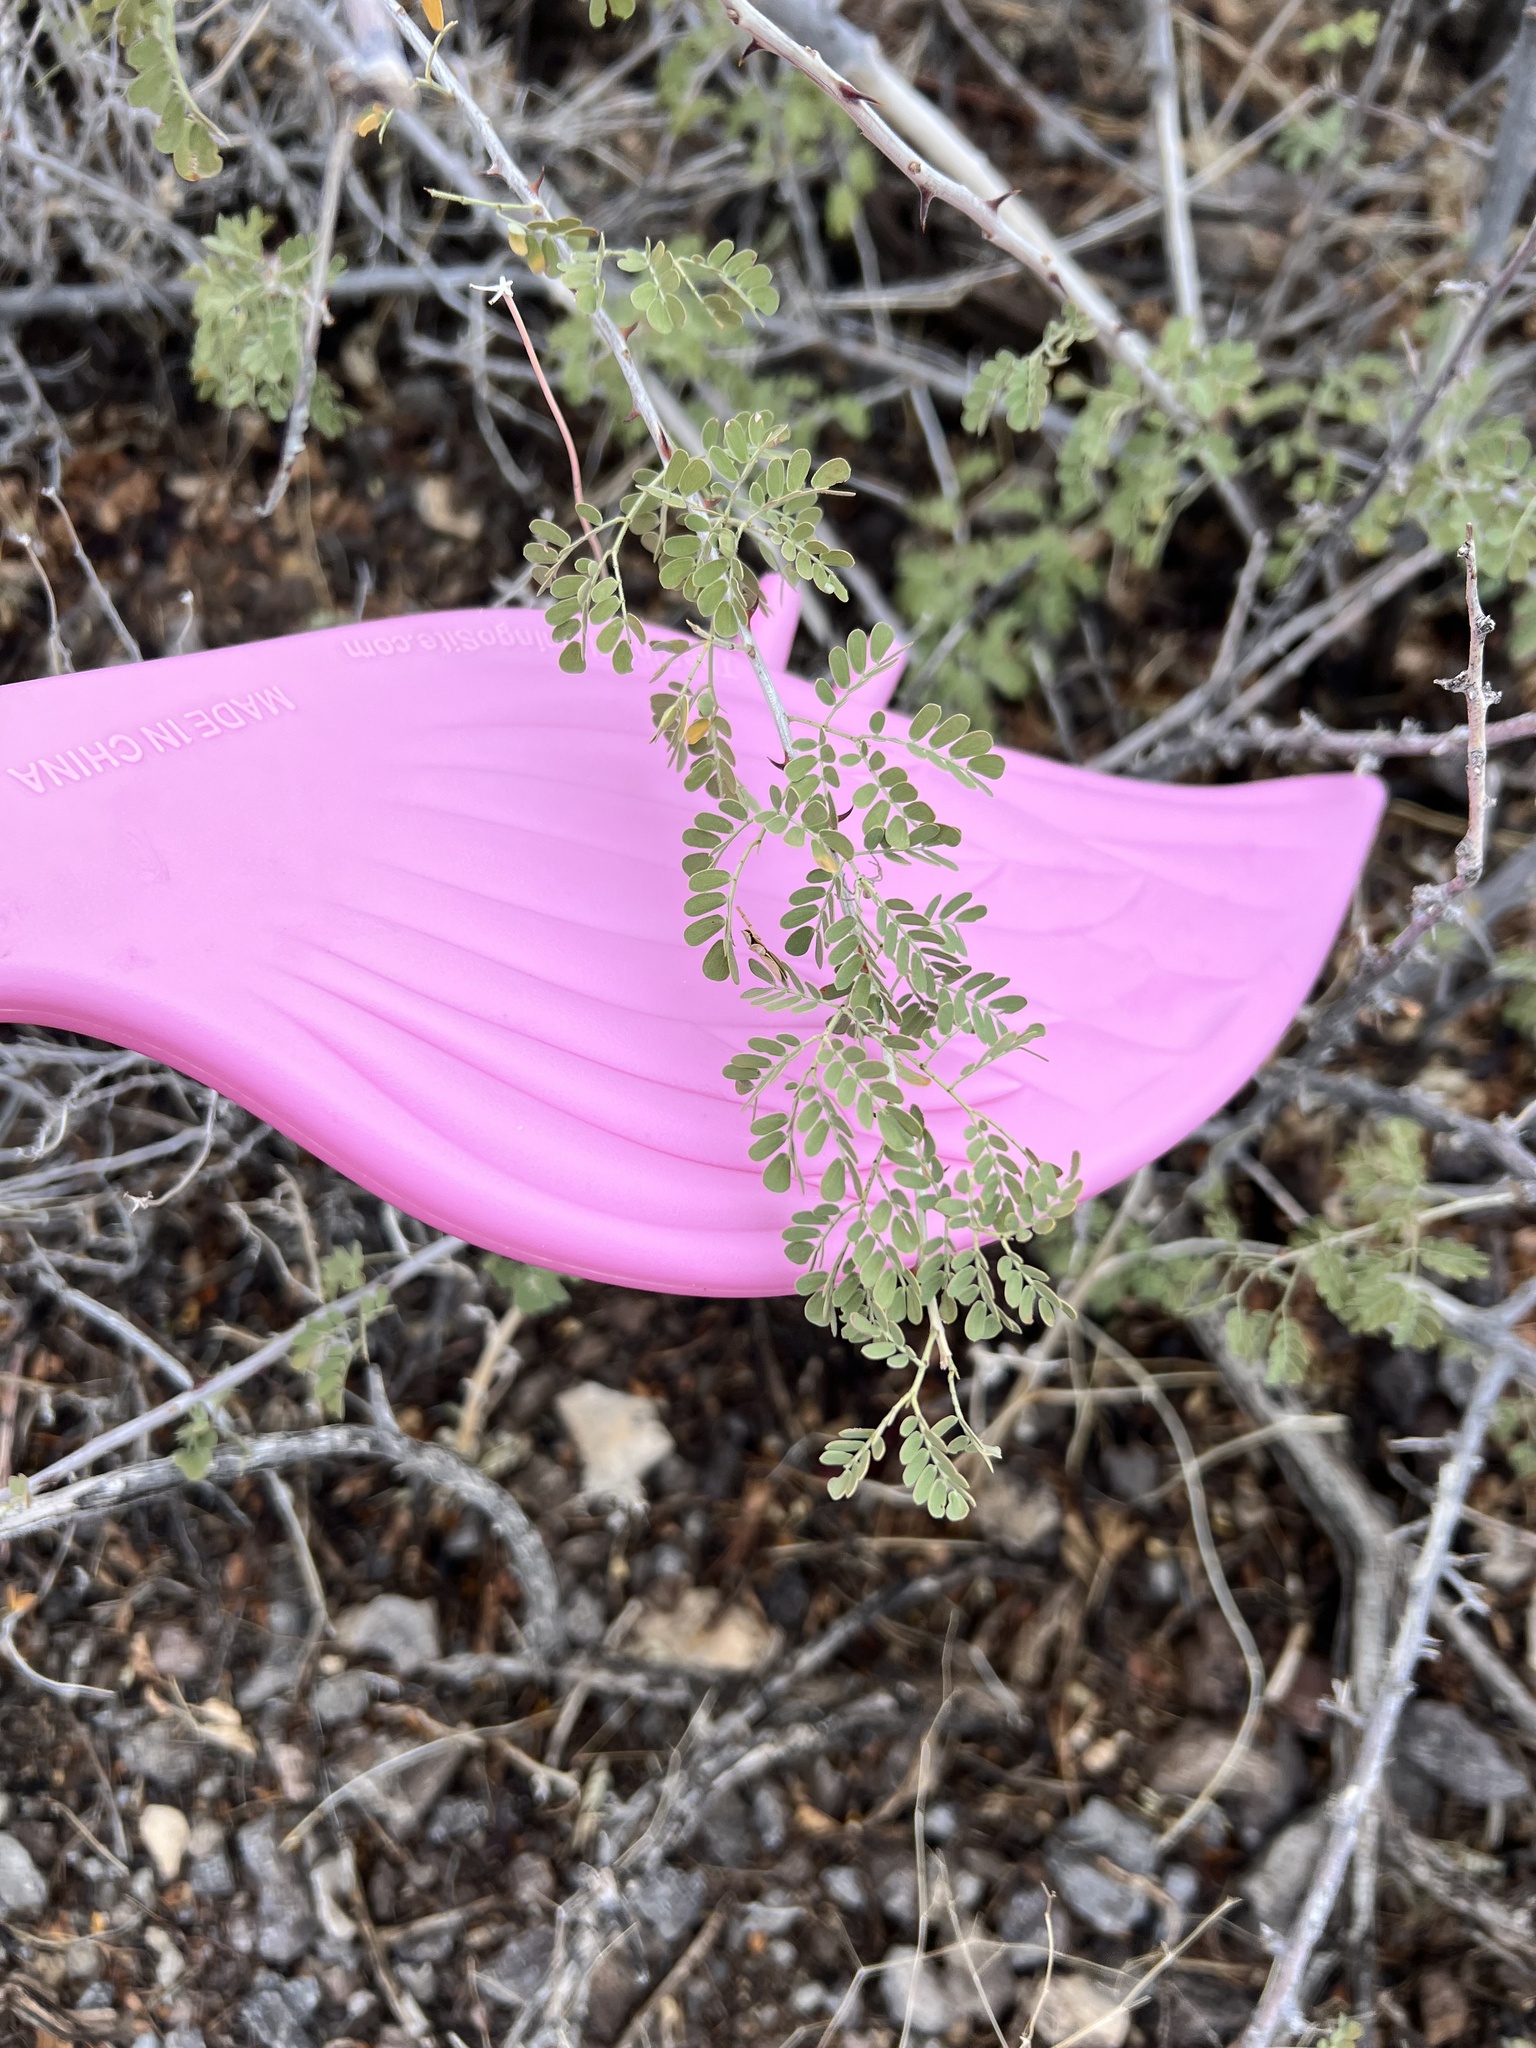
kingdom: Plantae
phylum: Tracheophyta
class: Magnoliopsida
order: Fabales
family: Fabaceae
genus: Senegalia
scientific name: Senegalia greggii
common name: Texas-mimosa
